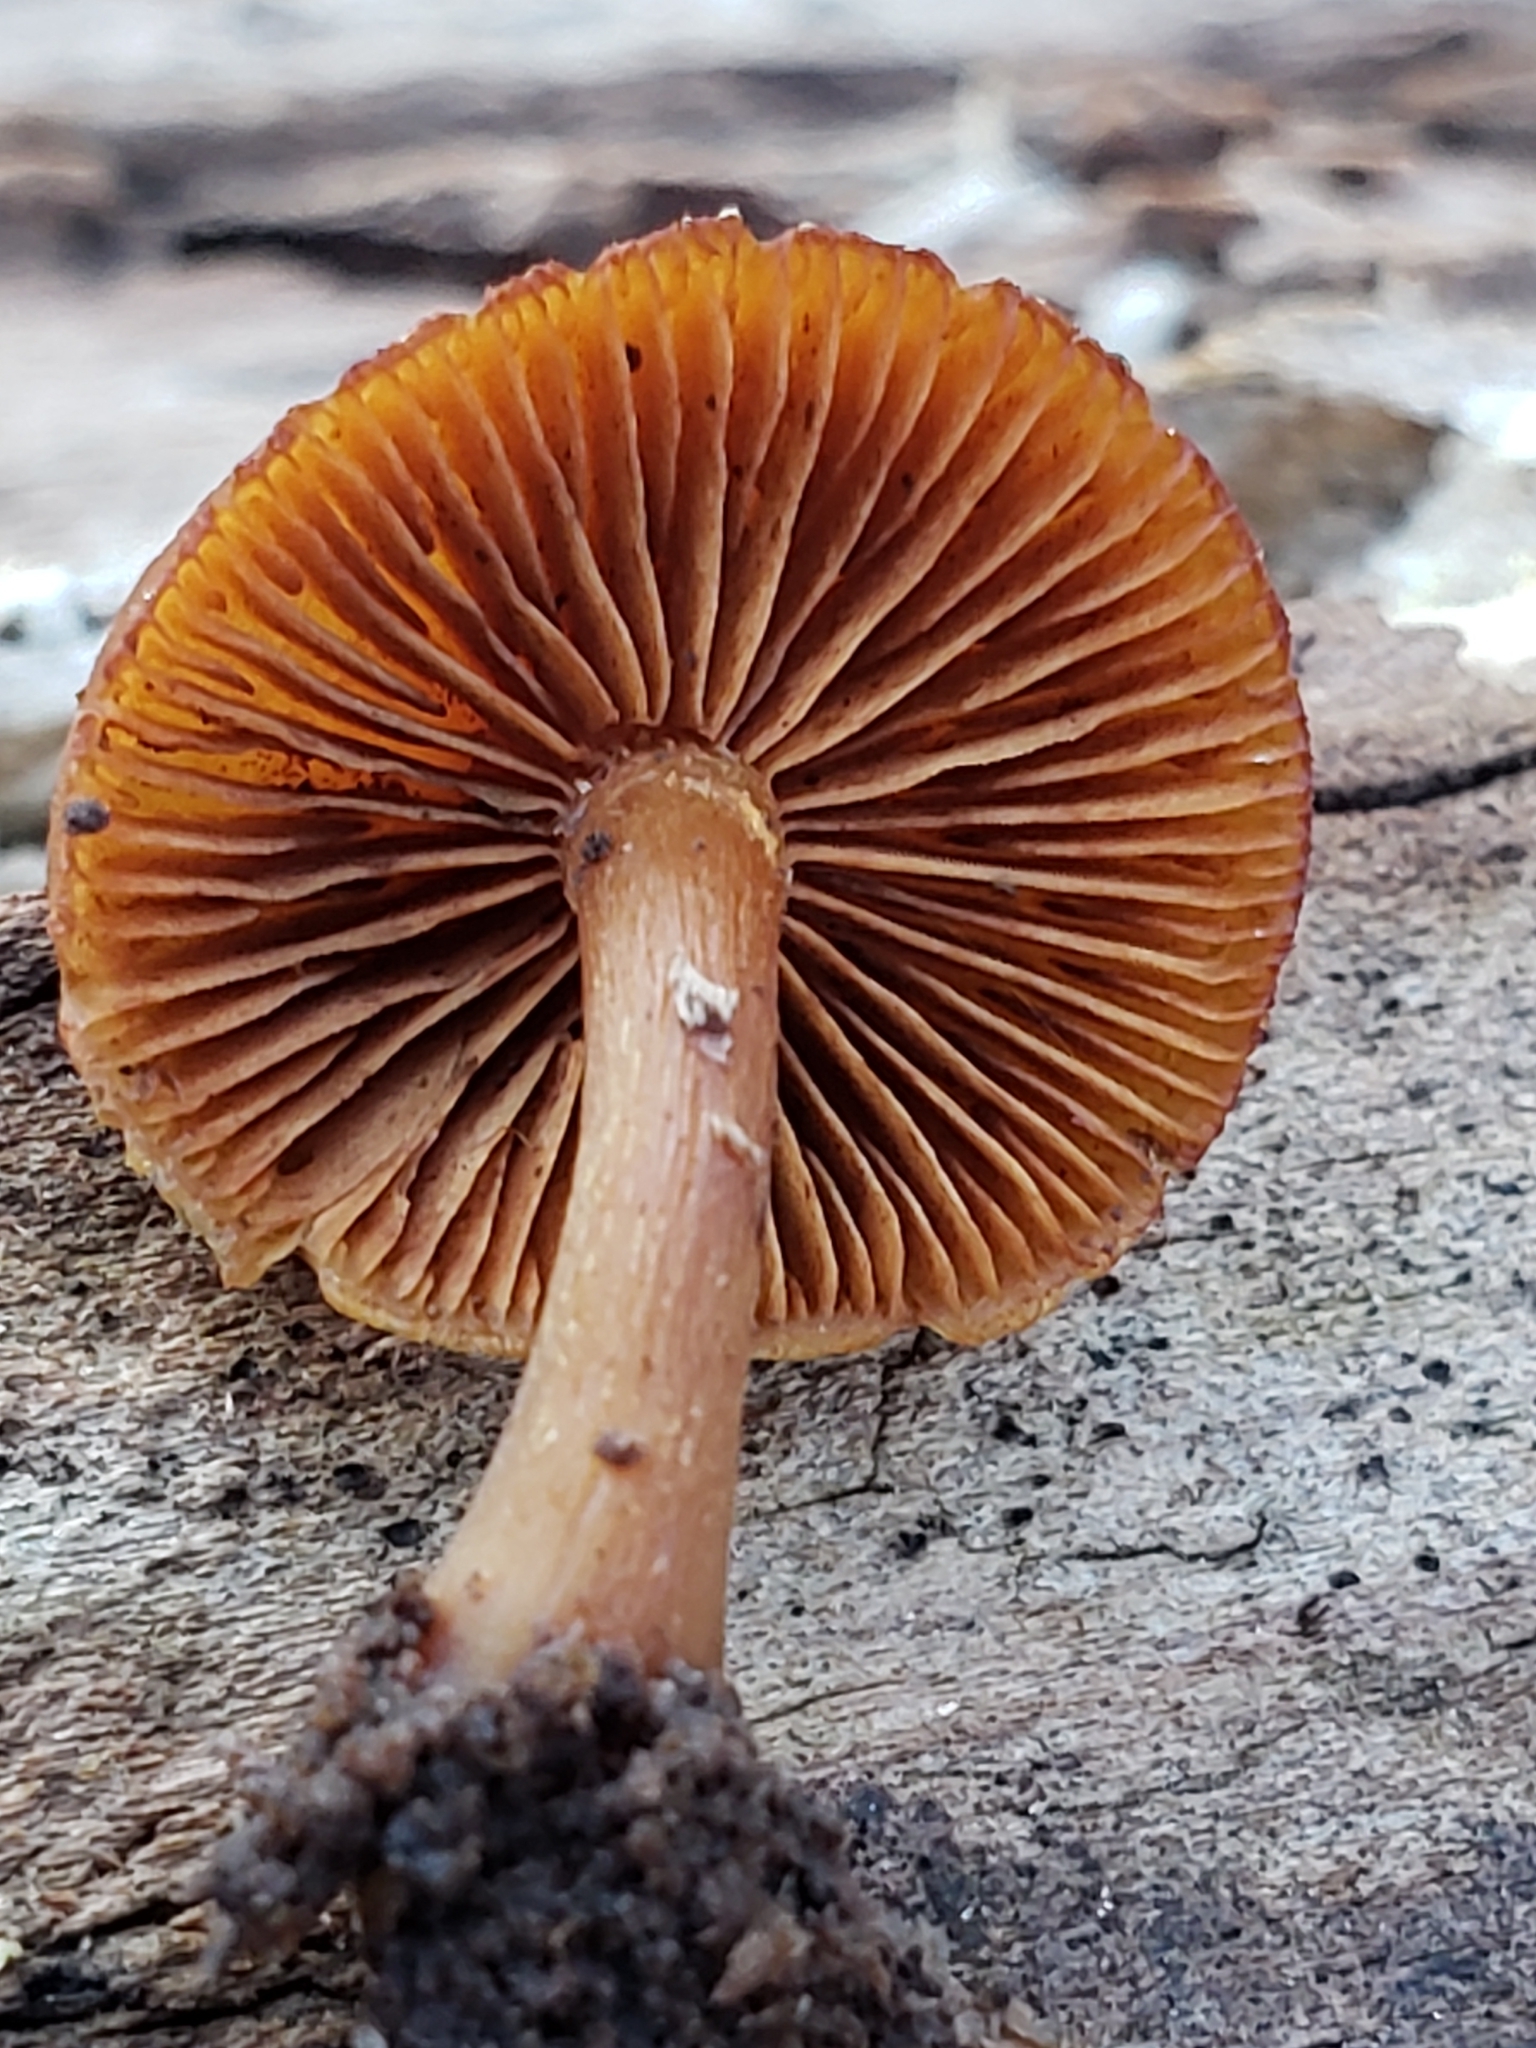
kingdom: Fungi
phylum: Basidiomycota
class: Agaricomycetes
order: Agaricales
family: Hymenogastraceae
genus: Galerina
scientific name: Galerina marginata
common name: Funeral bell
